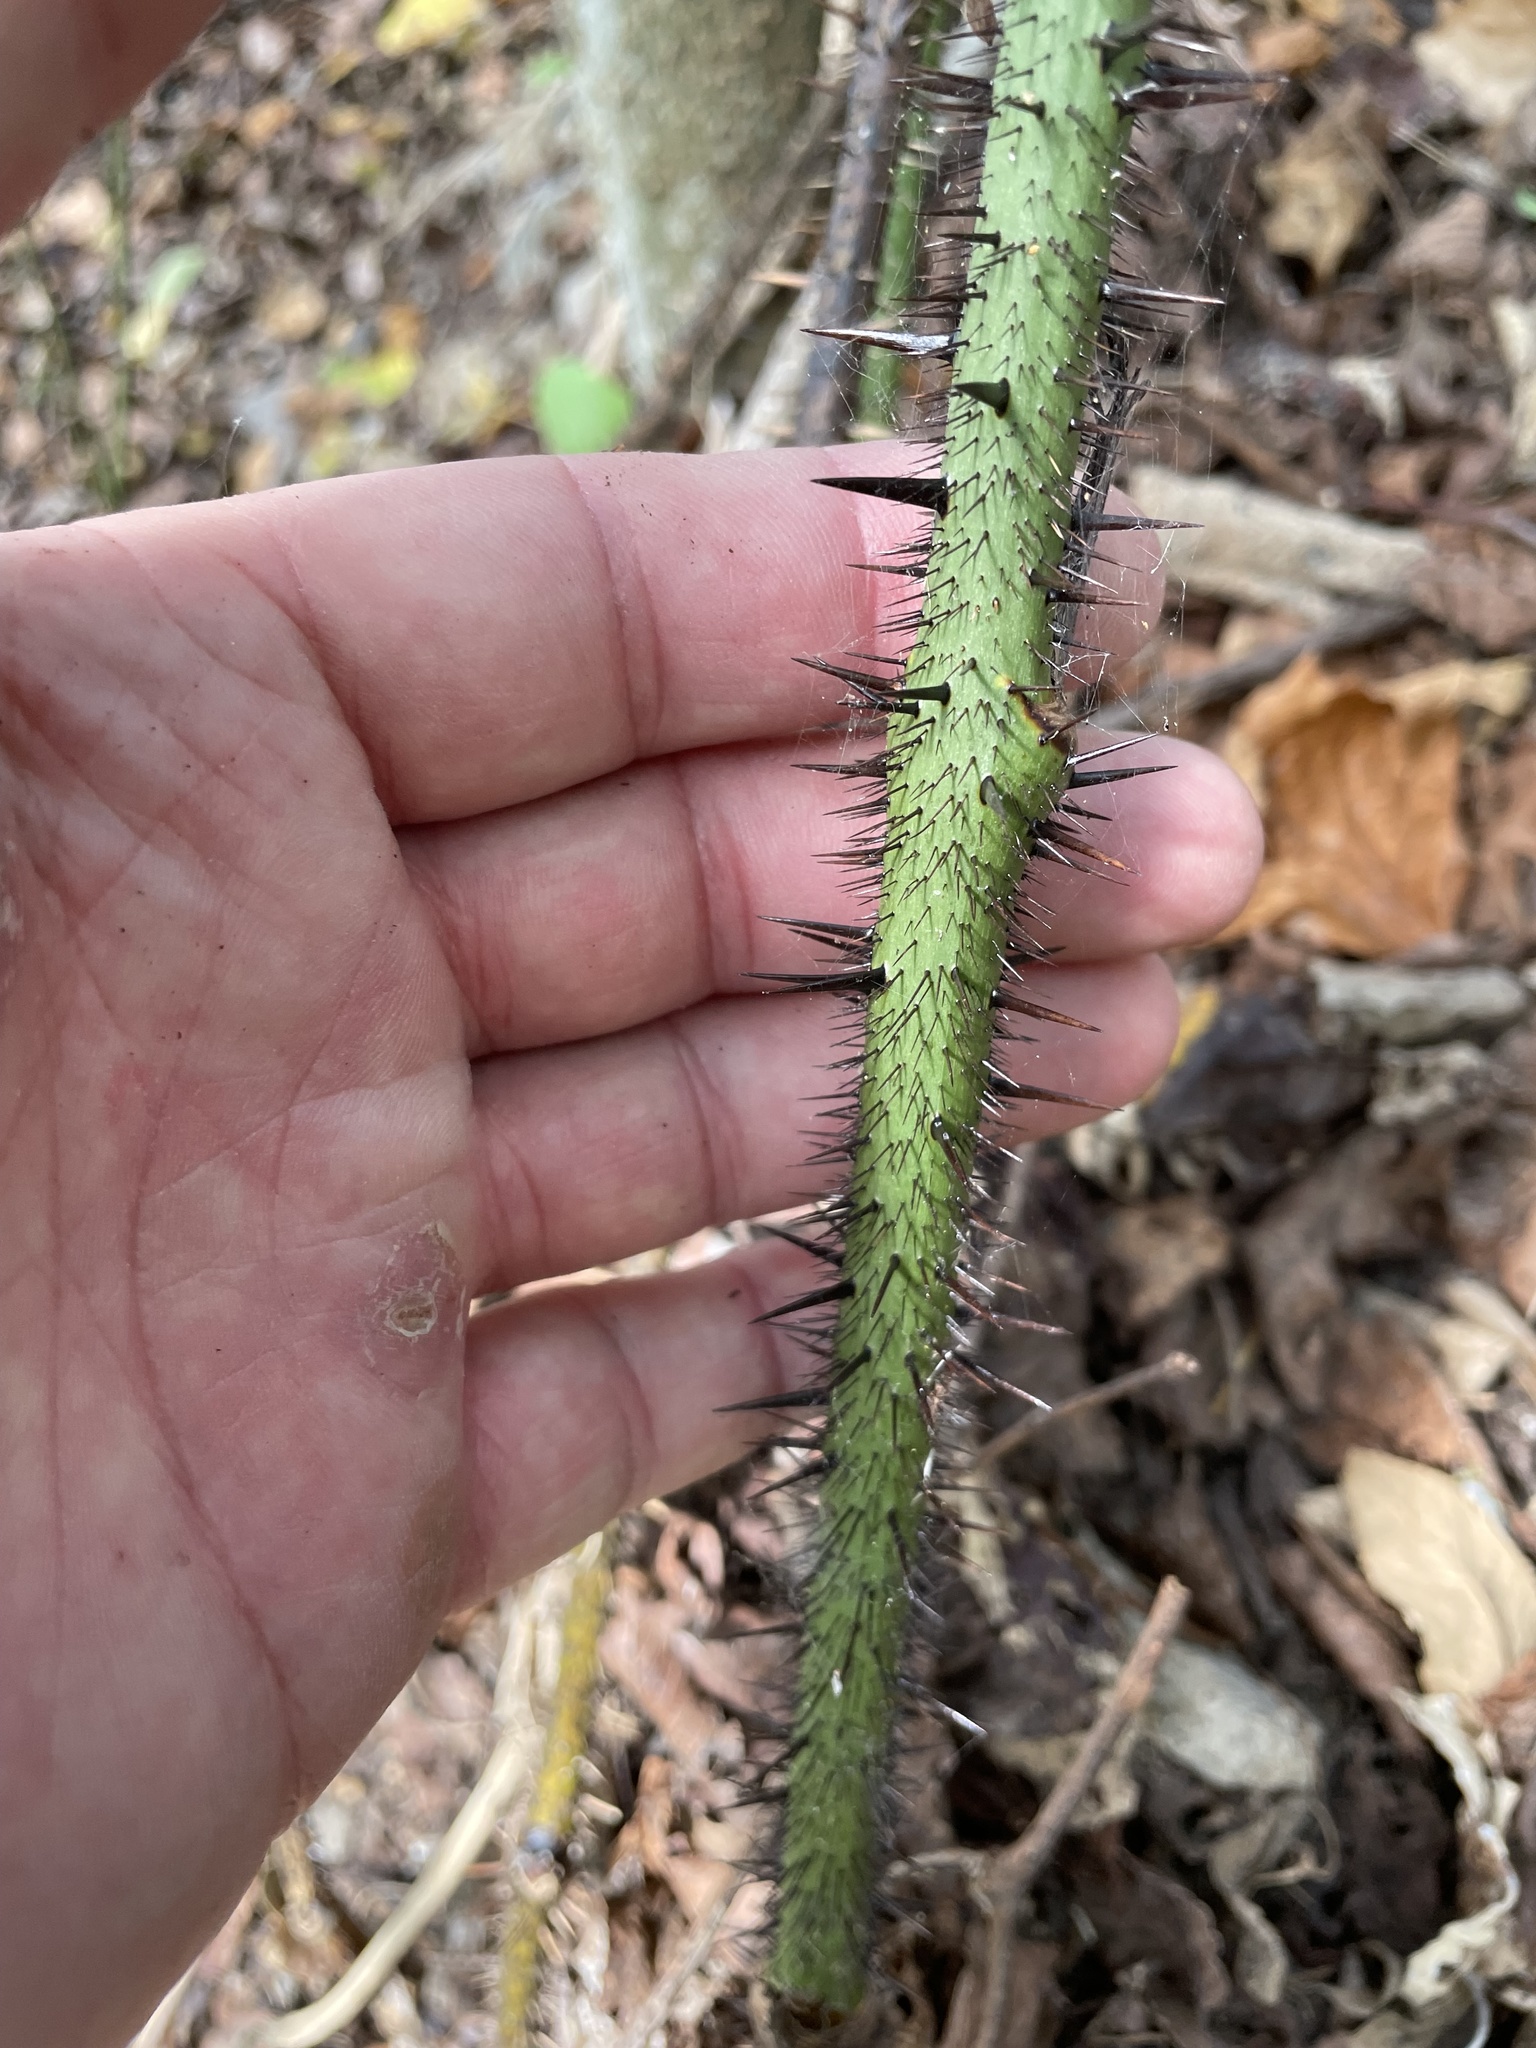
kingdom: Plantae
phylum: Tracheophyta
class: Liliopsida
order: Liliales
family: Smilacaceae
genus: Smilax
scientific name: Smilax tamnoides
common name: Hellfetter
